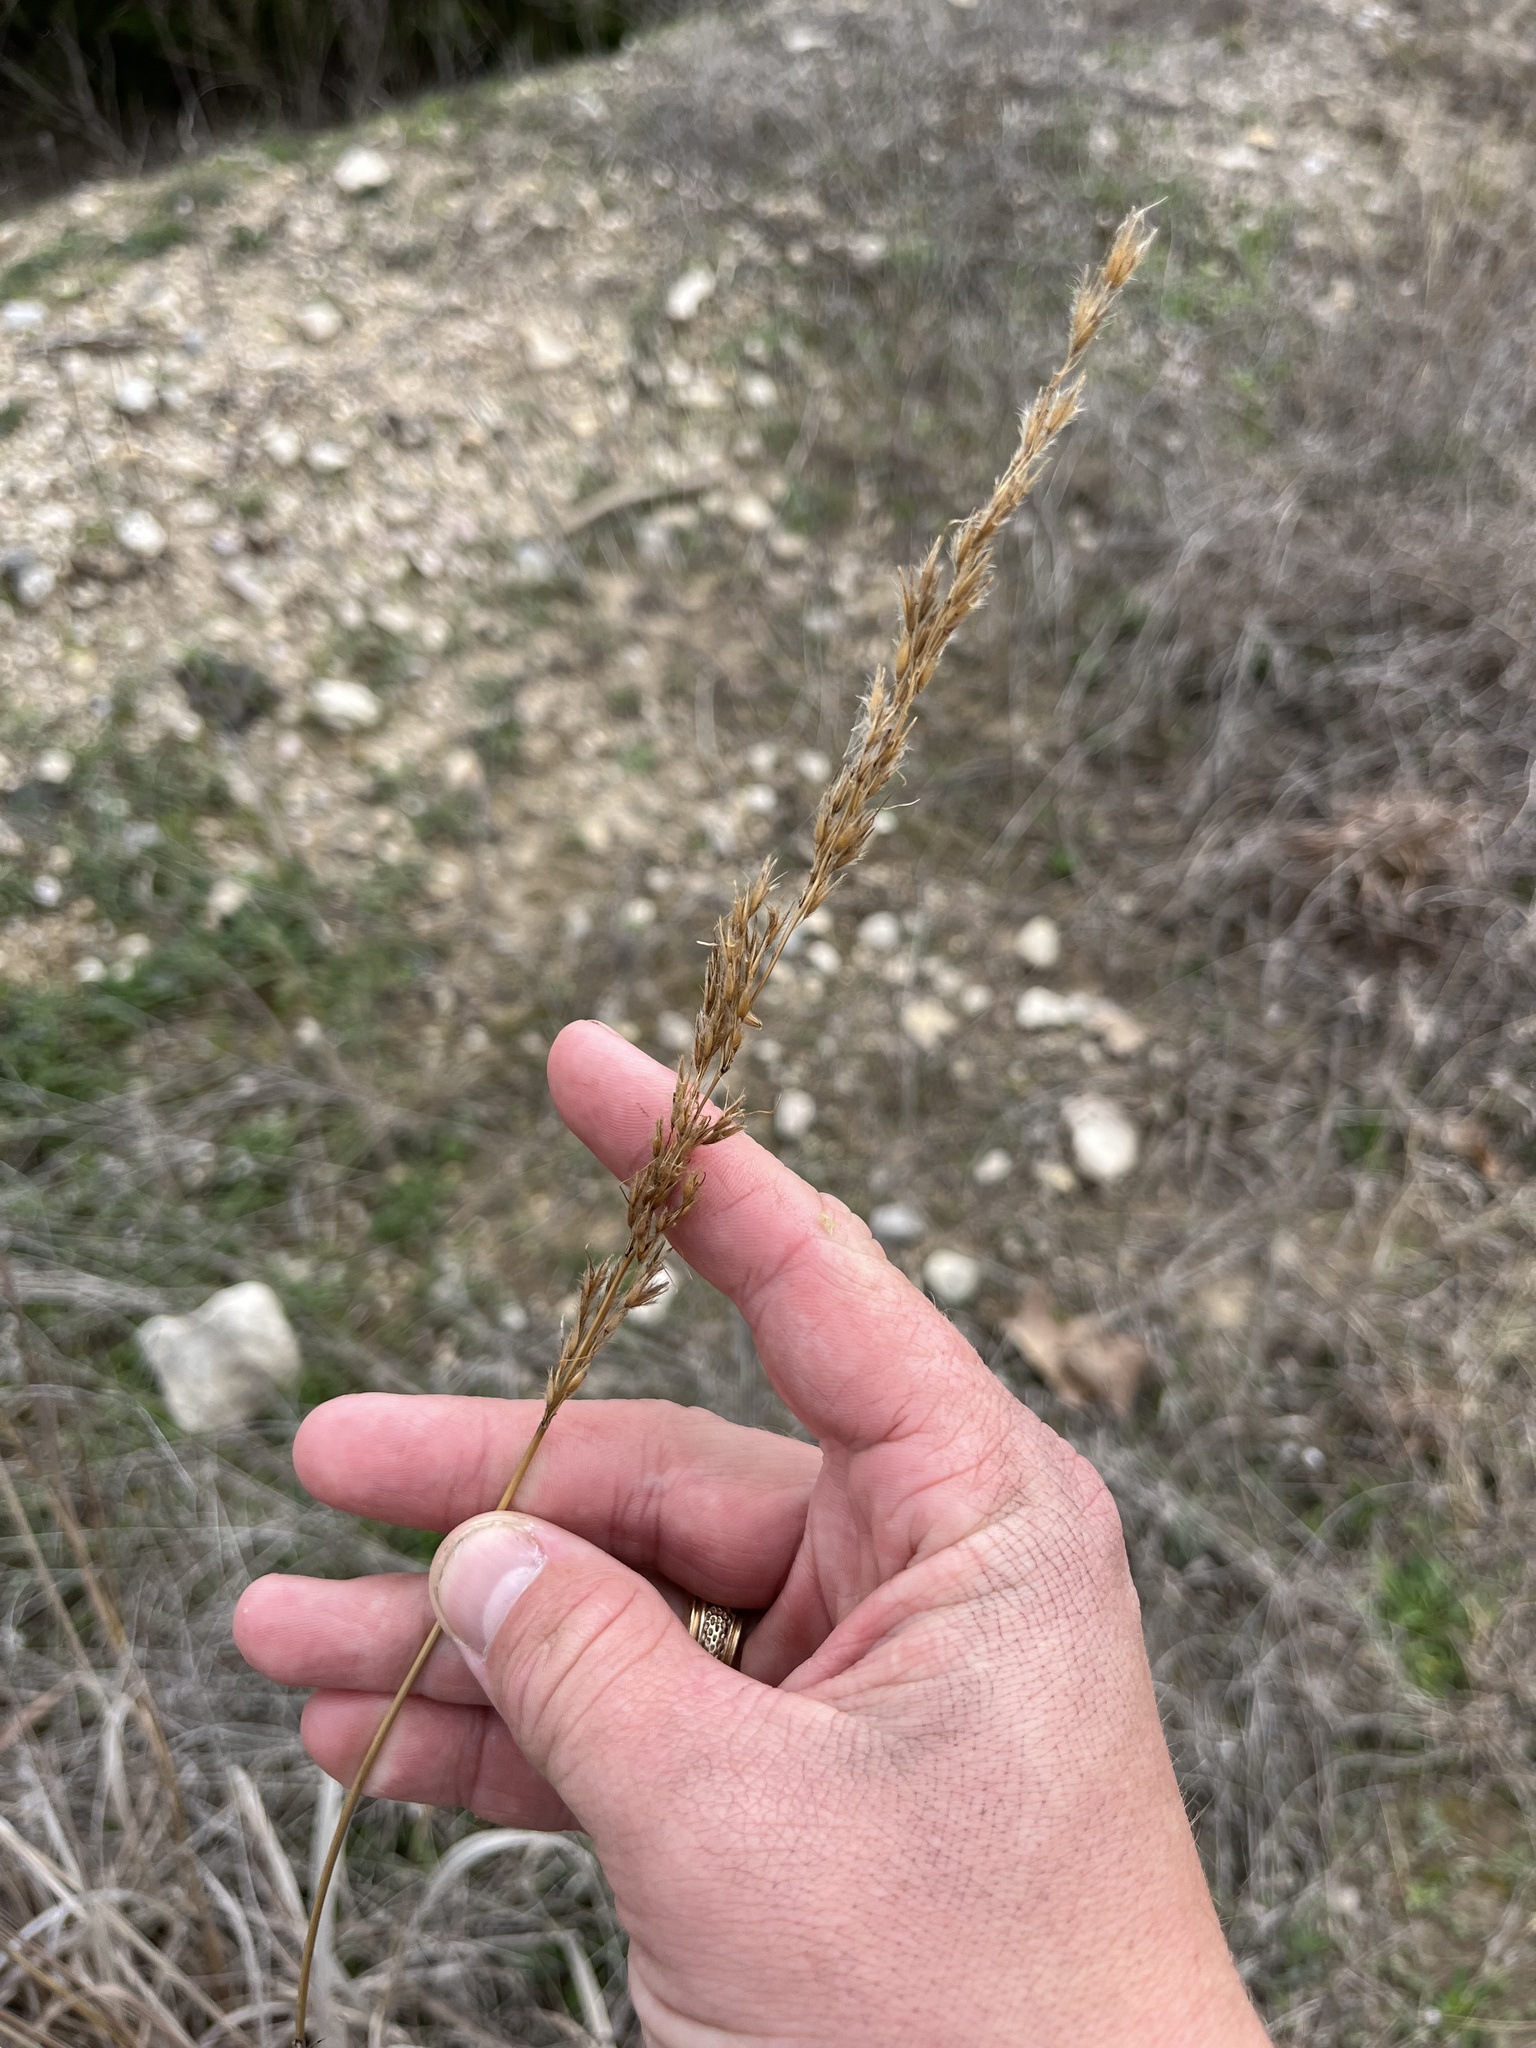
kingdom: Plantae
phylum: Tracheophyta
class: Liliopsida
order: Poales
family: Poaceae
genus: Sorghastrum
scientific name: Sorghastrum nutans
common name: Indian grass
